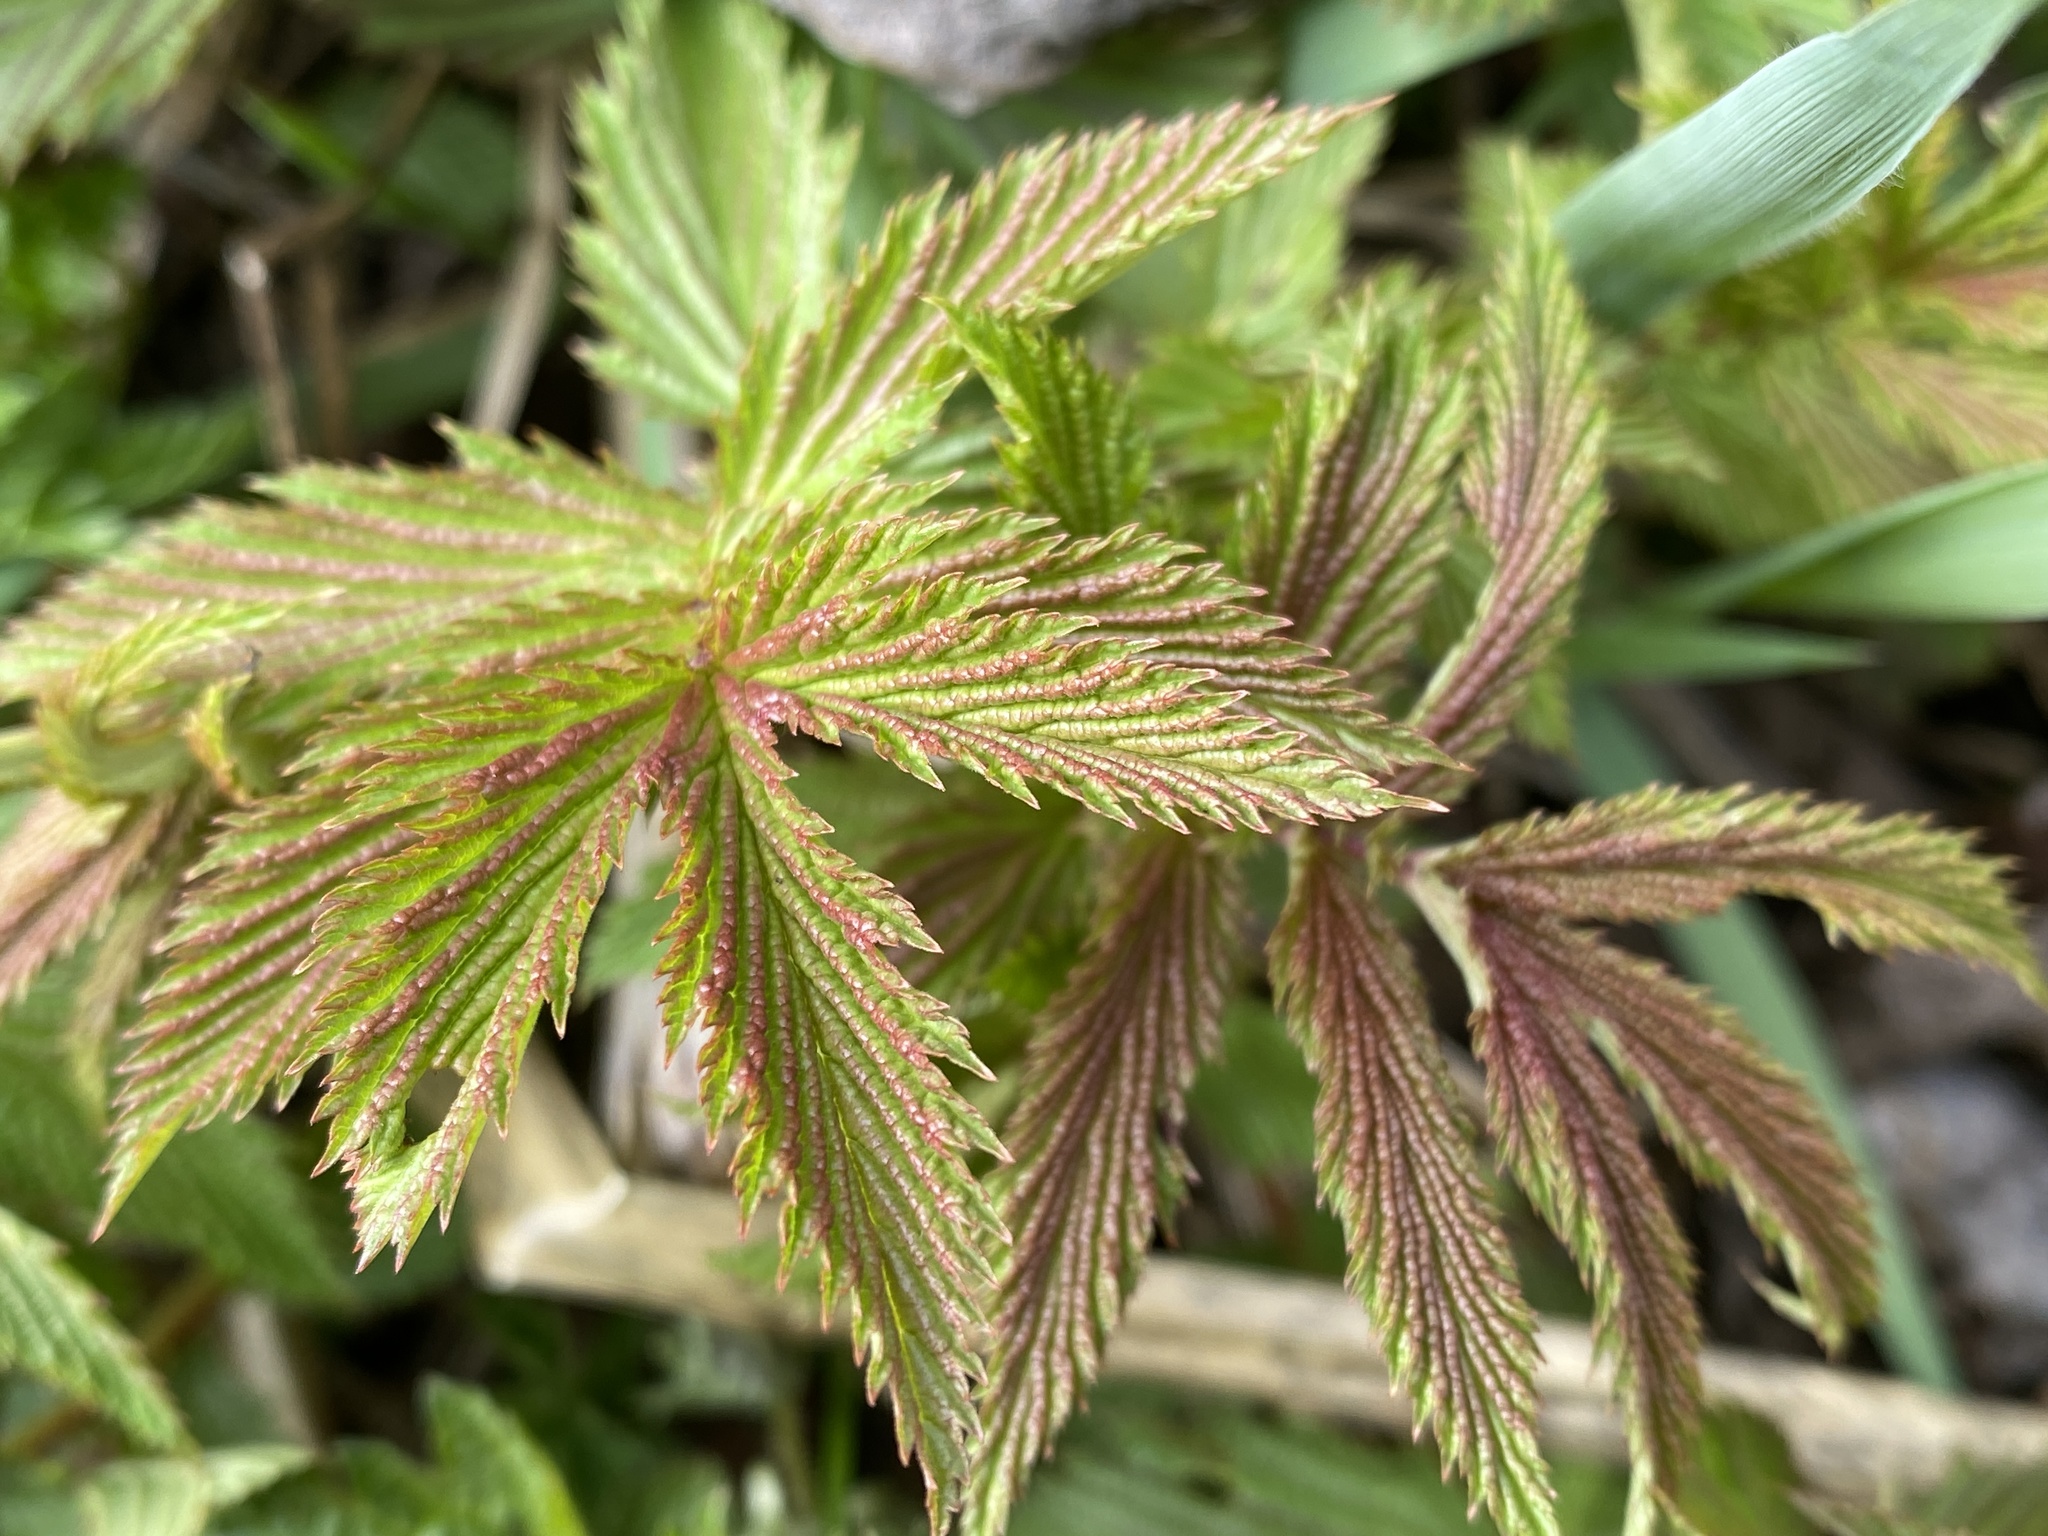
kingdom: Plantae
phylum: Tracheophyta
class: Magnoliopsida
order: Rosales
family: Rosaceae
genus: Filipendula
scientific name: Filipendula ulmaria
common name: Meadowsweet
